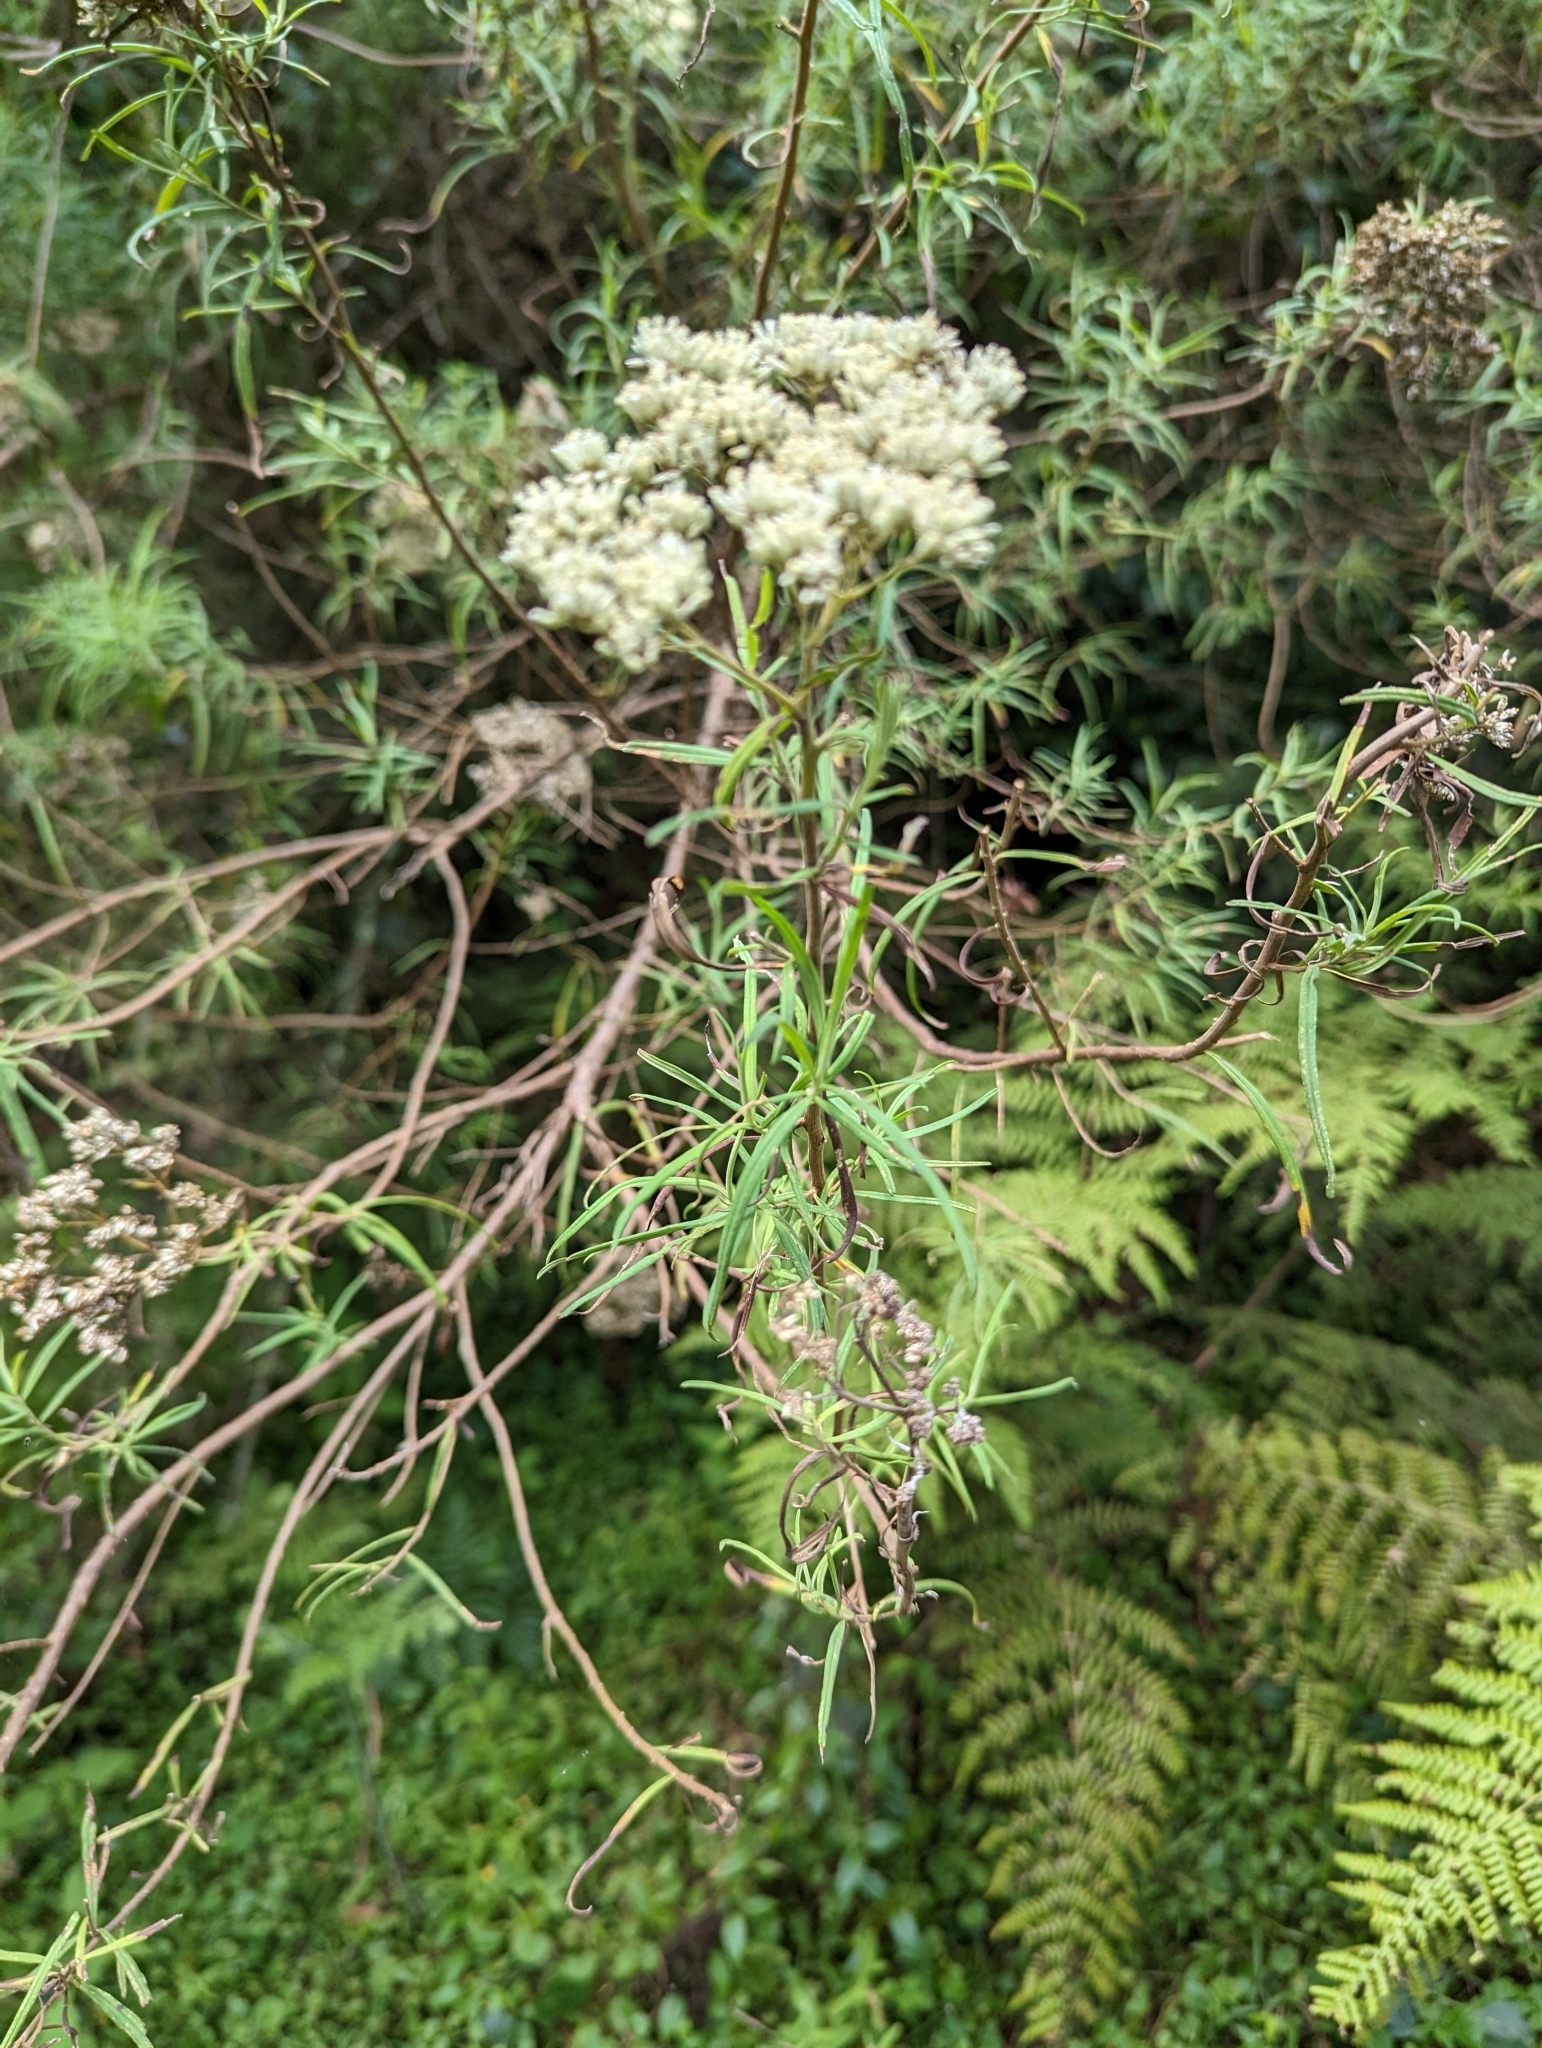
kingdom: Plantae
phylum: Tracheophyta
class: Magnoliopsida
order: Asterales
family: Asteraceae
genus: Cassinia
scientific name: Cassinia
